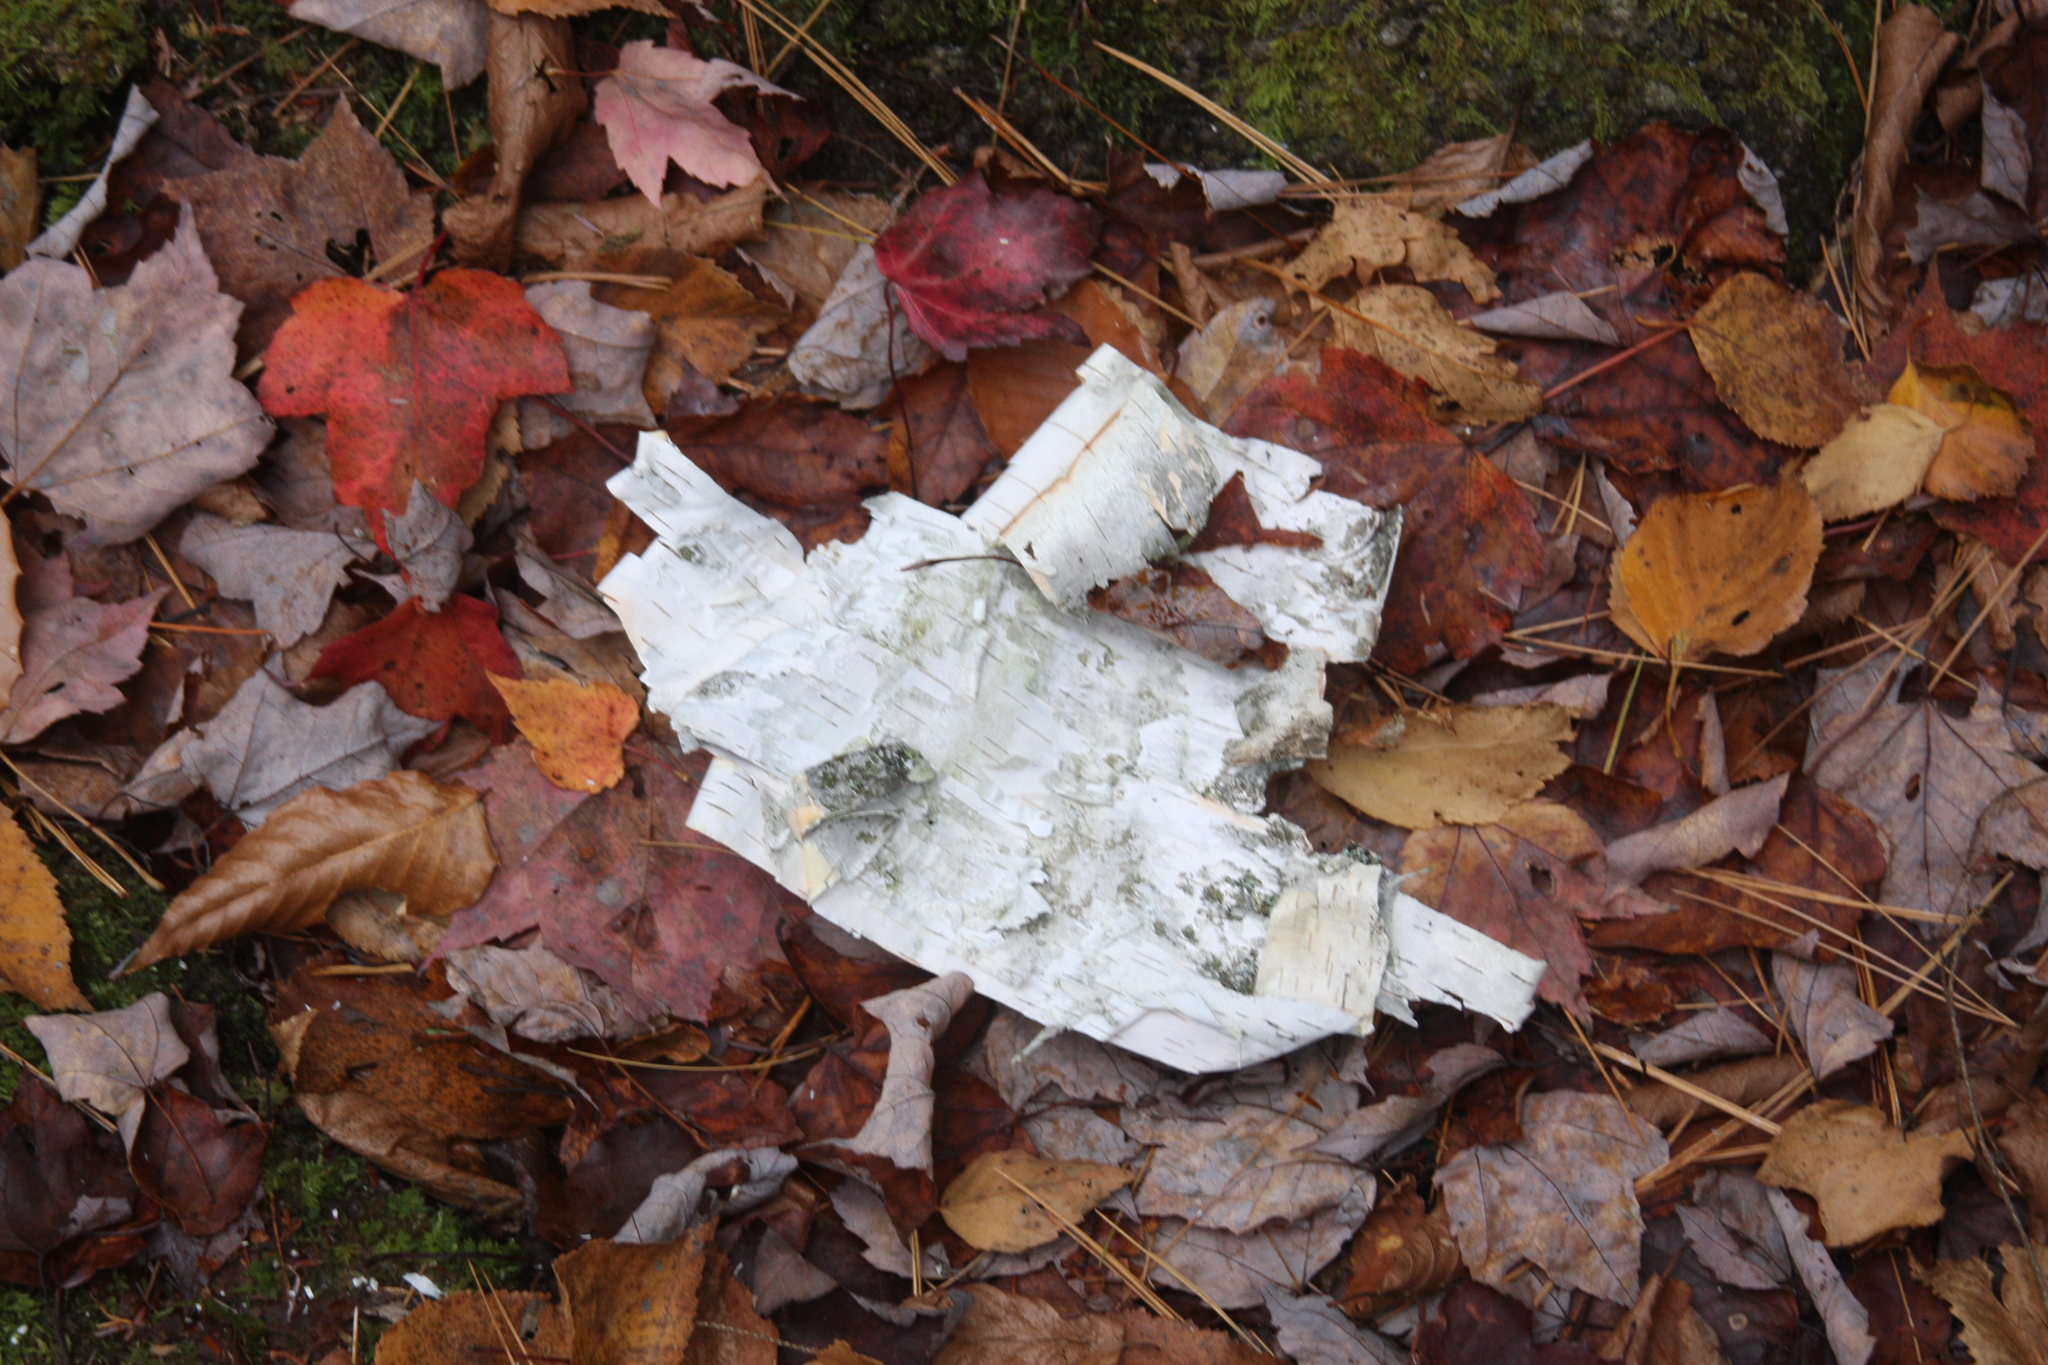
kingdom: Plantae
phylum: Tracheophyta
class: Magnoliopsida
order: Fagales
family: Betulaceae
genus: Betula
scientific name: Betula papyrifera
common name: Paper birch
